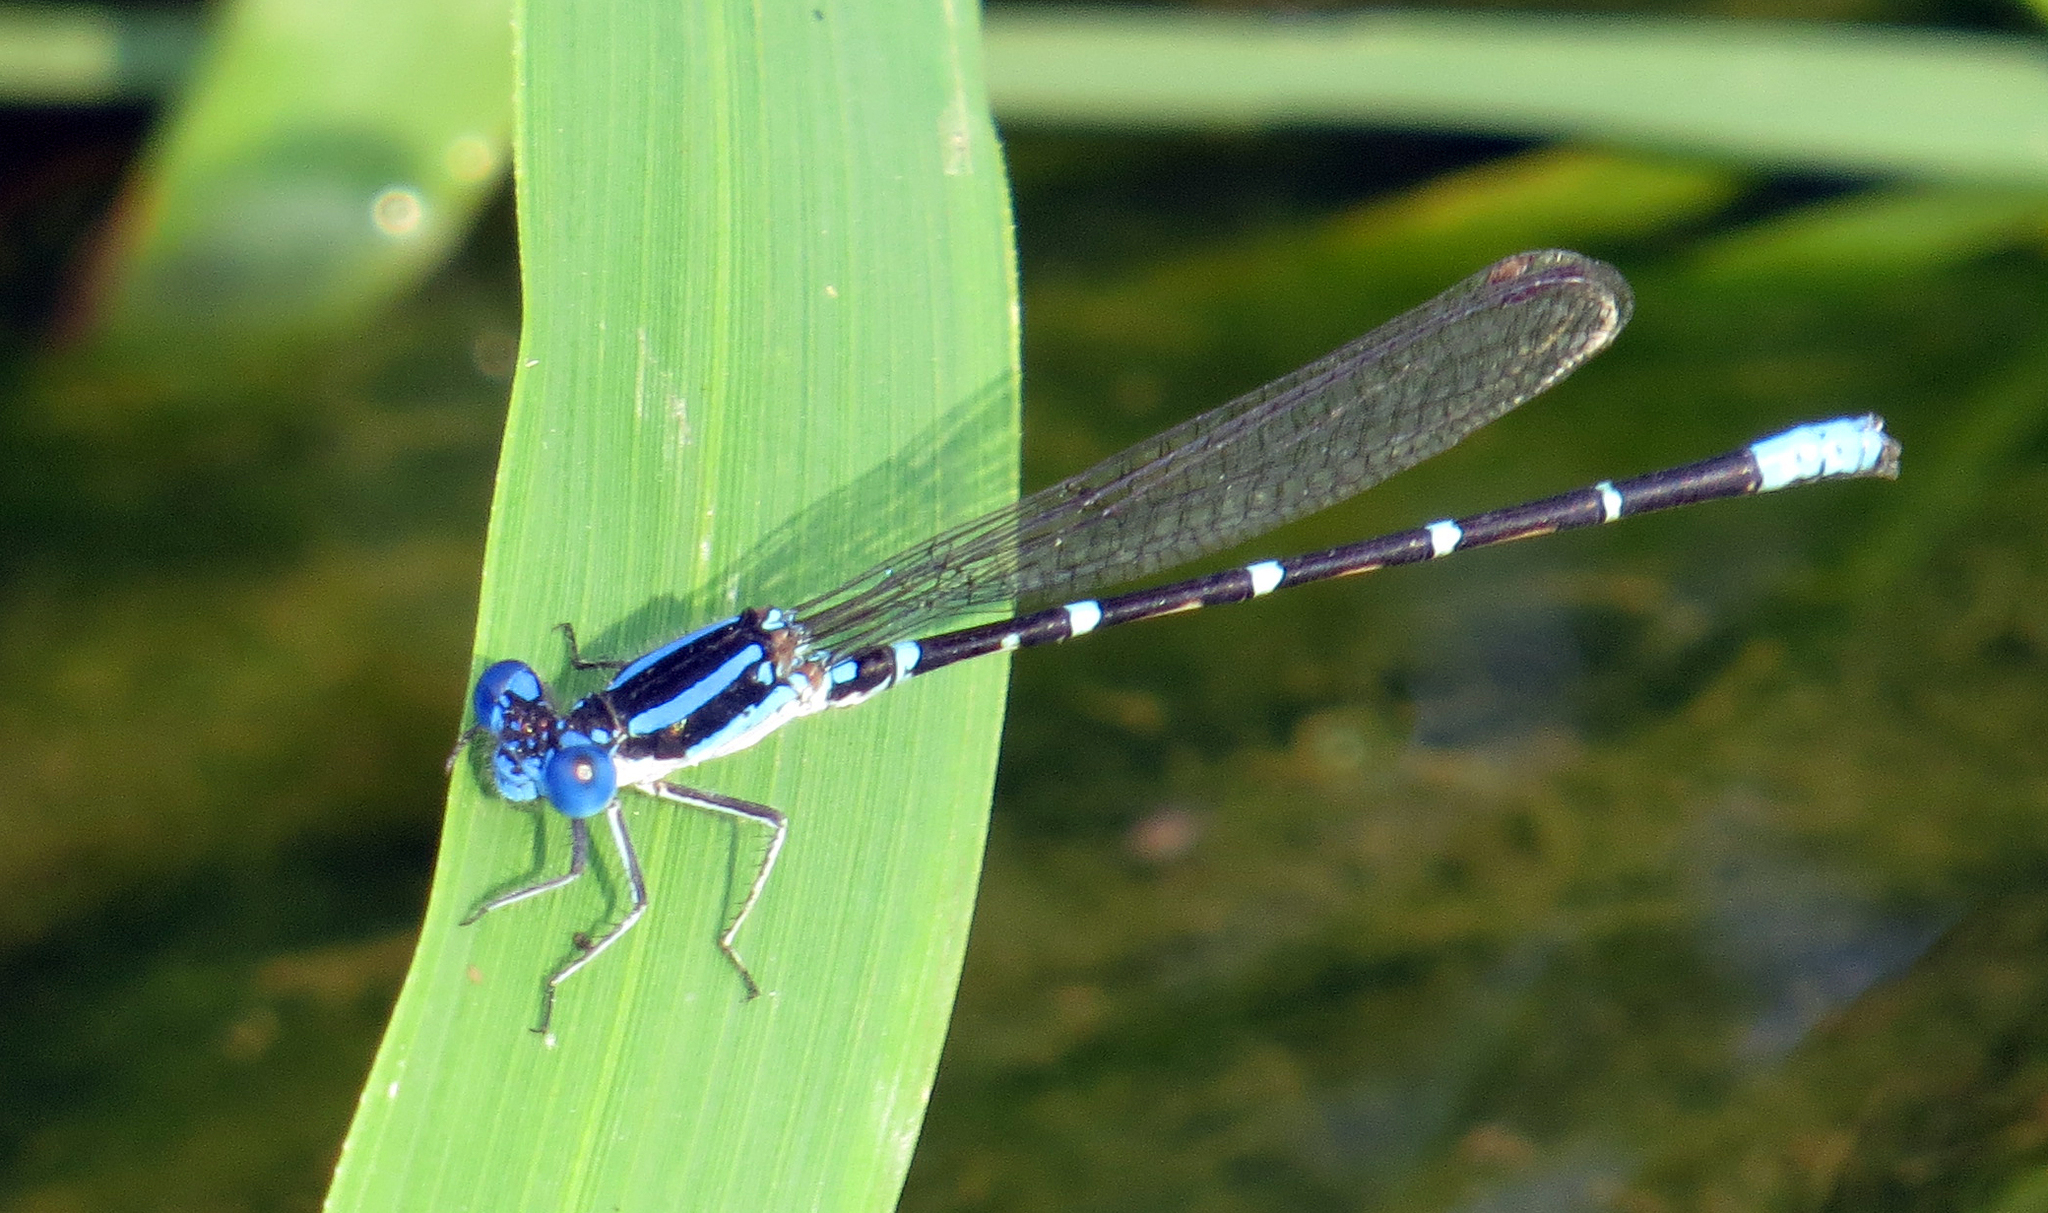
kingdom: Animalia
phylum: Arthropoda
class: Insecta
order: Odonata
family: Coenagrionidae
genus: Argia
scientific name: Argia sedula
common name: Blue-ringed dancer
